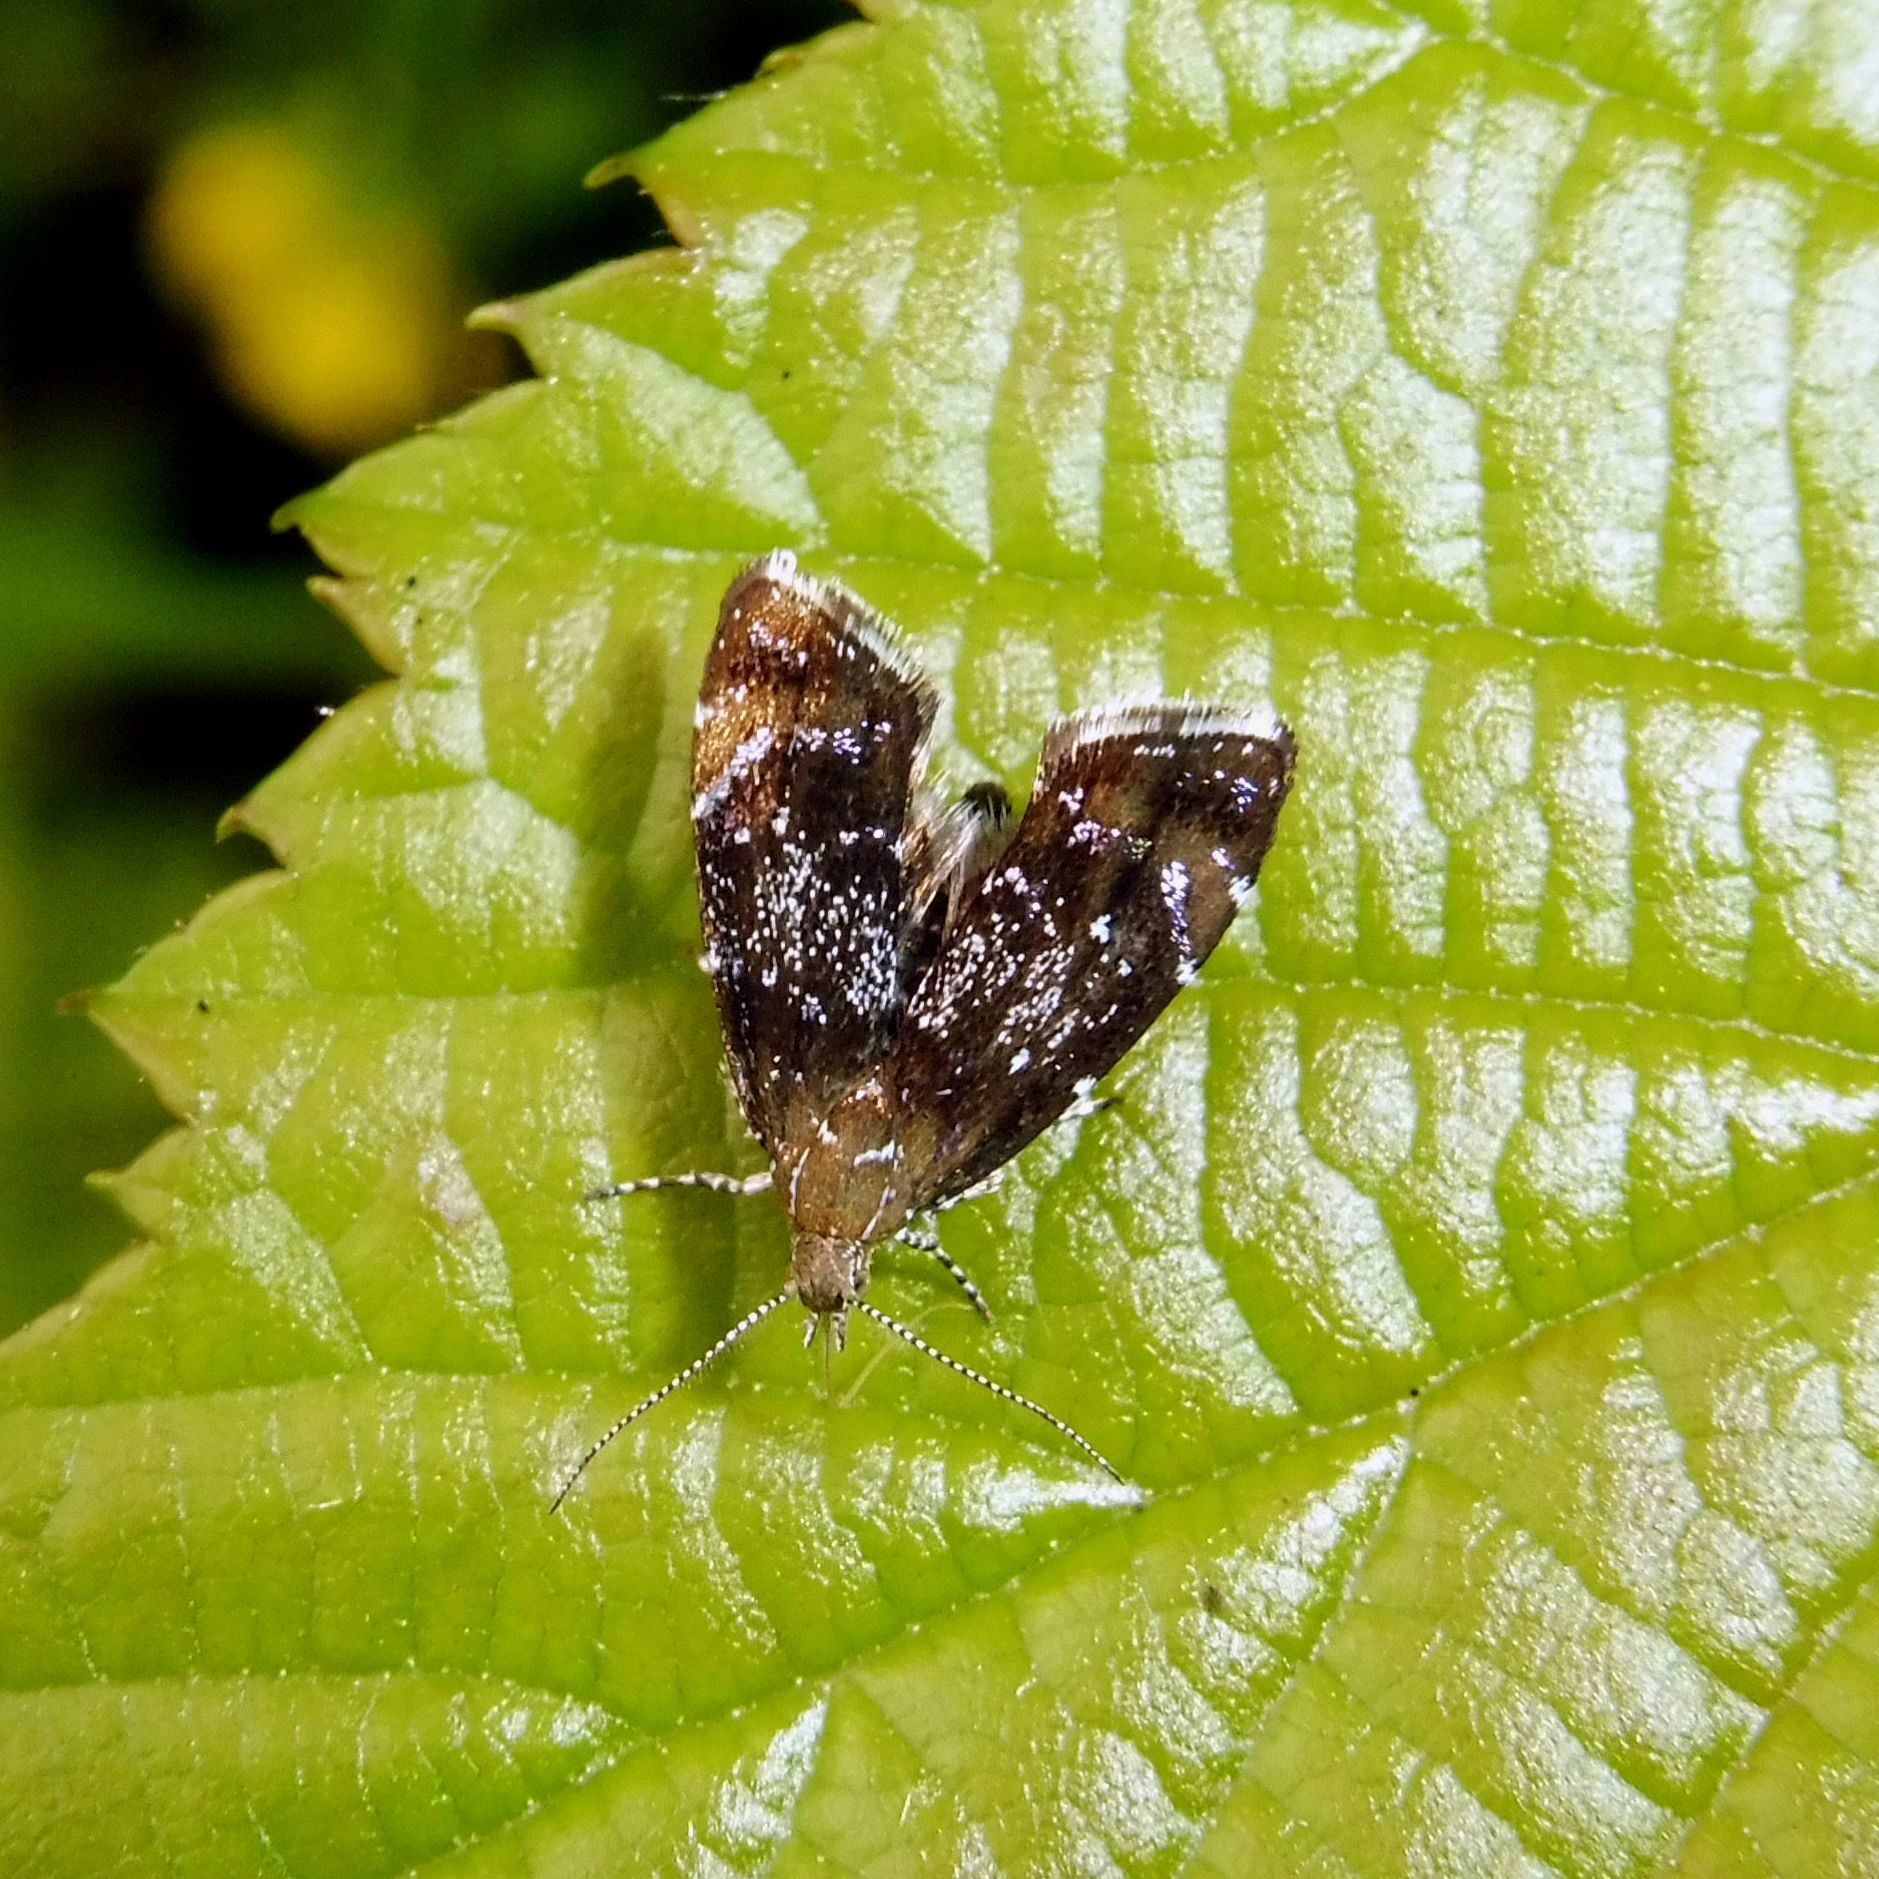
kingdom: Animalia
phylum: Arthropoda
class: Insecta
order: Lepidoptera
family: Choreutidae
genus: Prochoreutis
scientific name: Prochoreutis sehestediana
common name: Silver-dot twitcher
